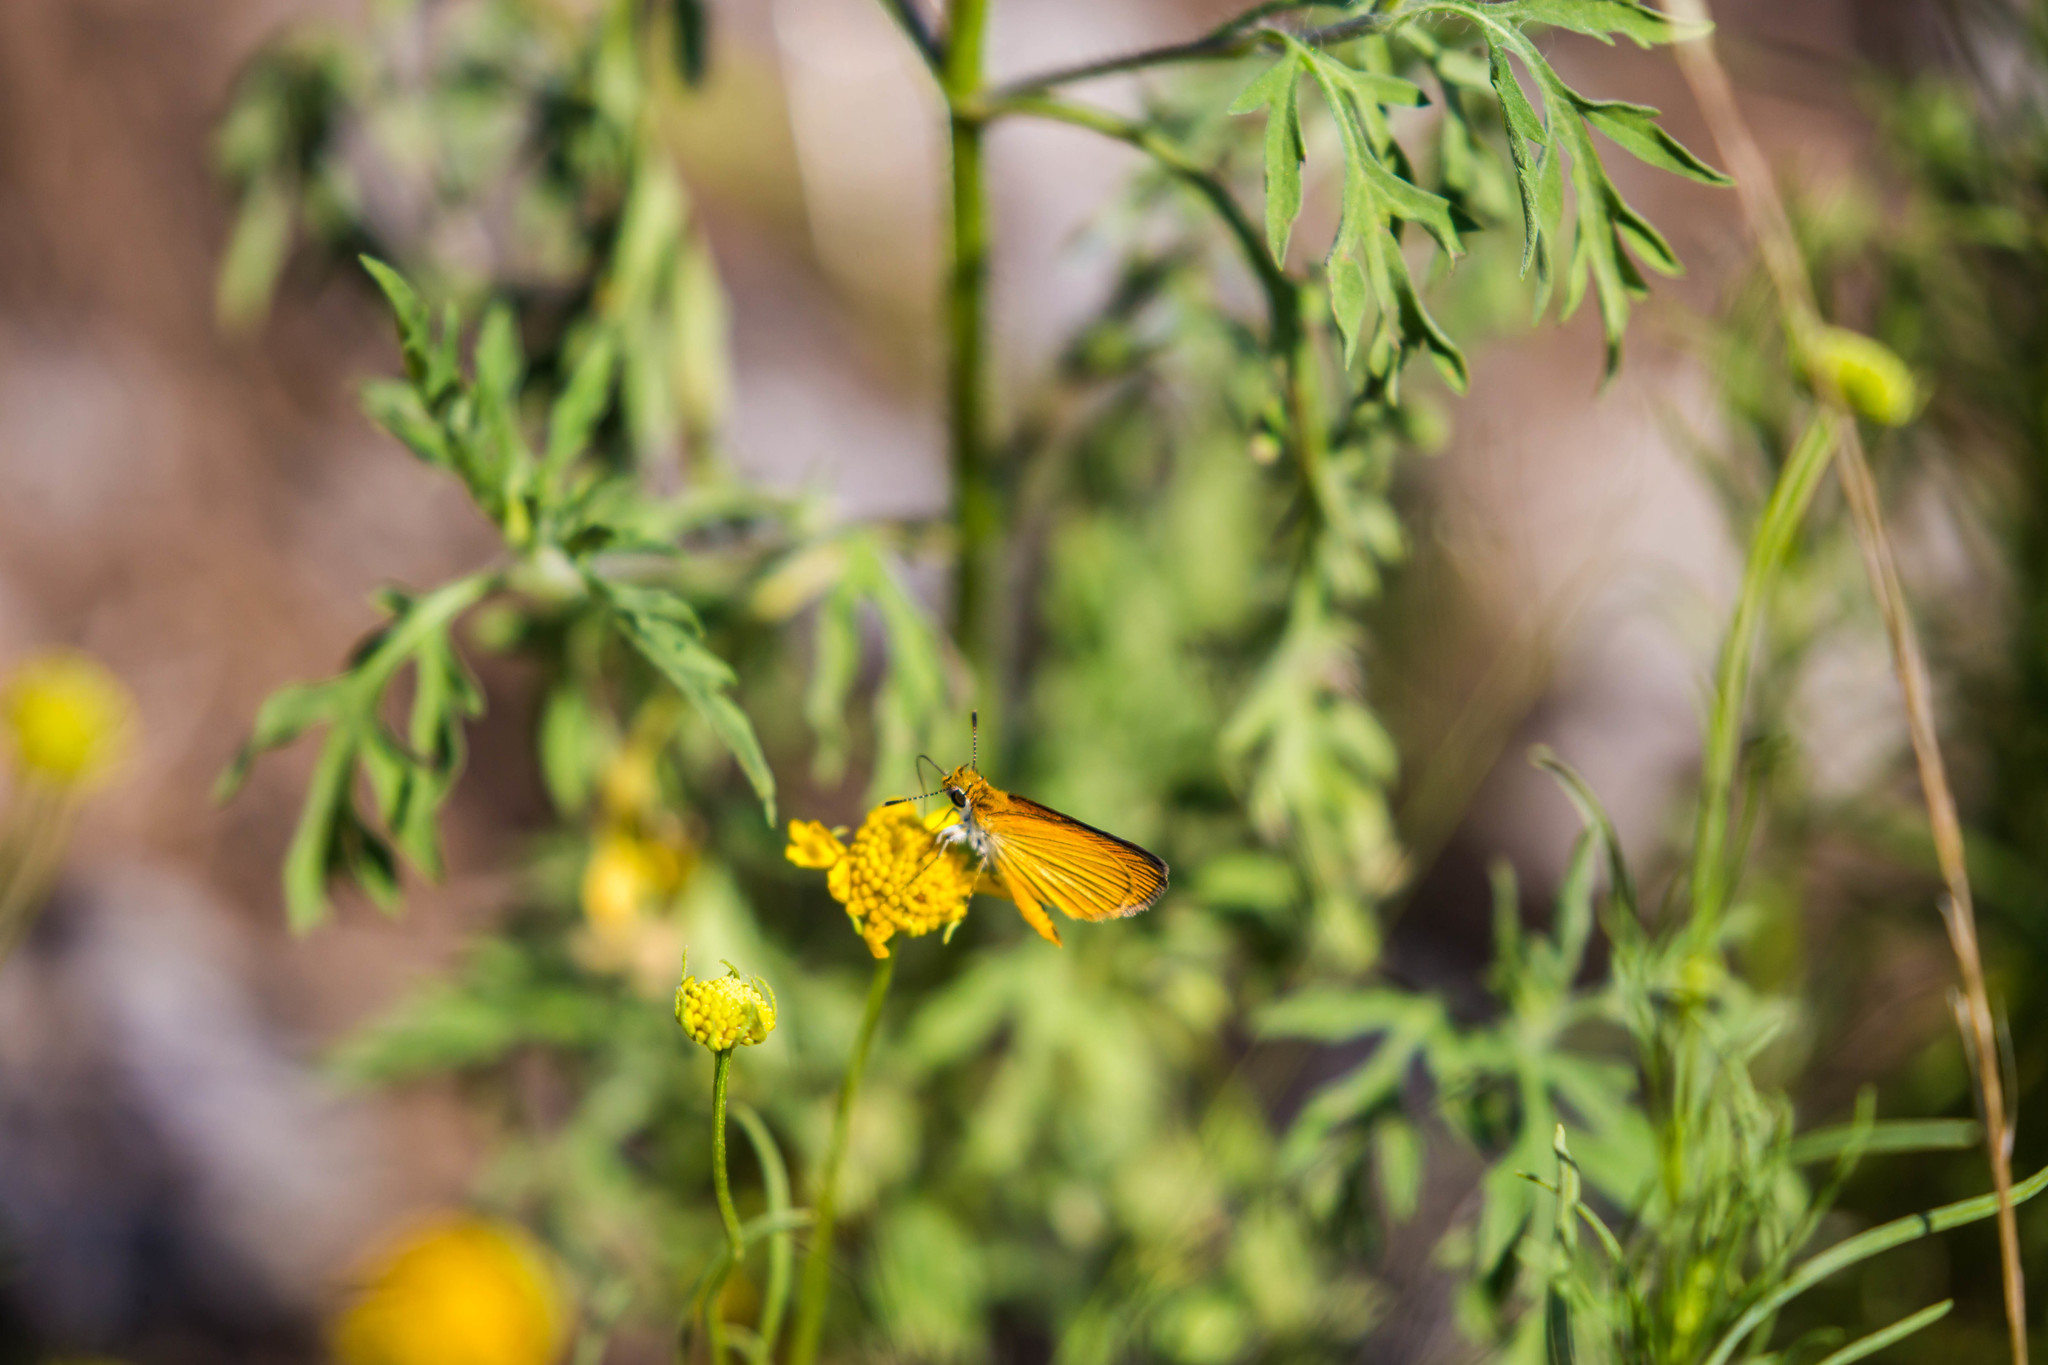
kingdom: Animalia
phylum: Arthropoda
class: Insecta
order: Lepidoptera
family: Hesperiidae
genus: Ancyloxypha
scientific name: Ancyloxypha numitor
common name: Least skipper
